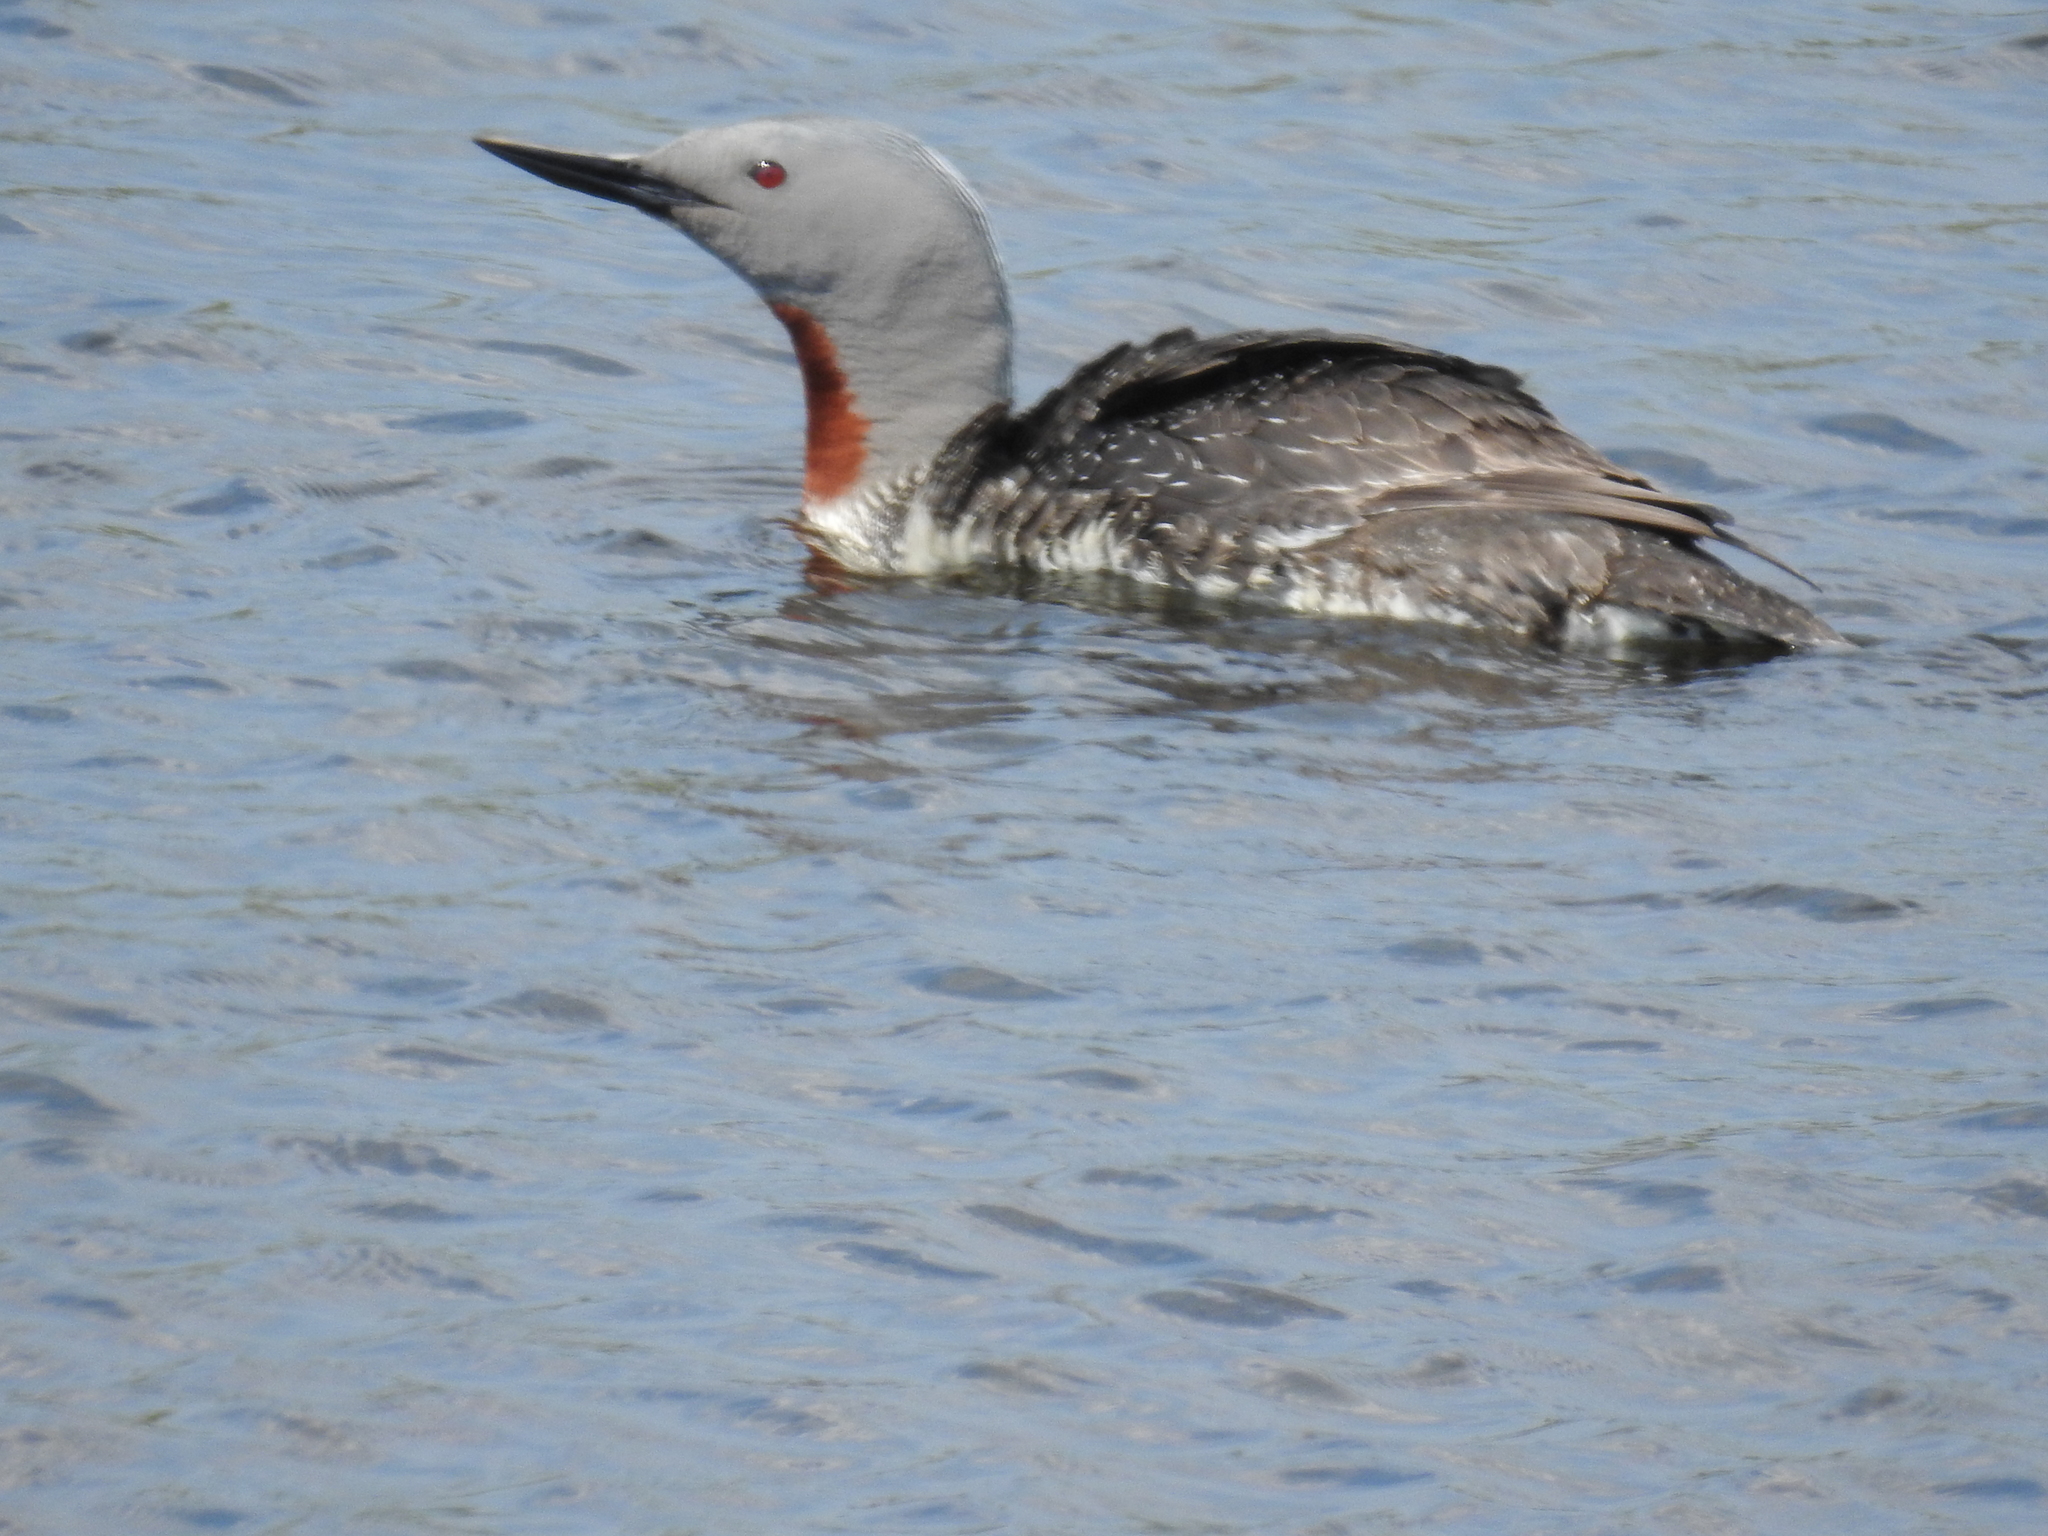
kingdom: Animalia
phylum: Chordata
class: Aves
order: Gaviiformes
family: Gaviidae
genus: Gavia
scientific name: Gavia stellata
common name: Red-throated loon
